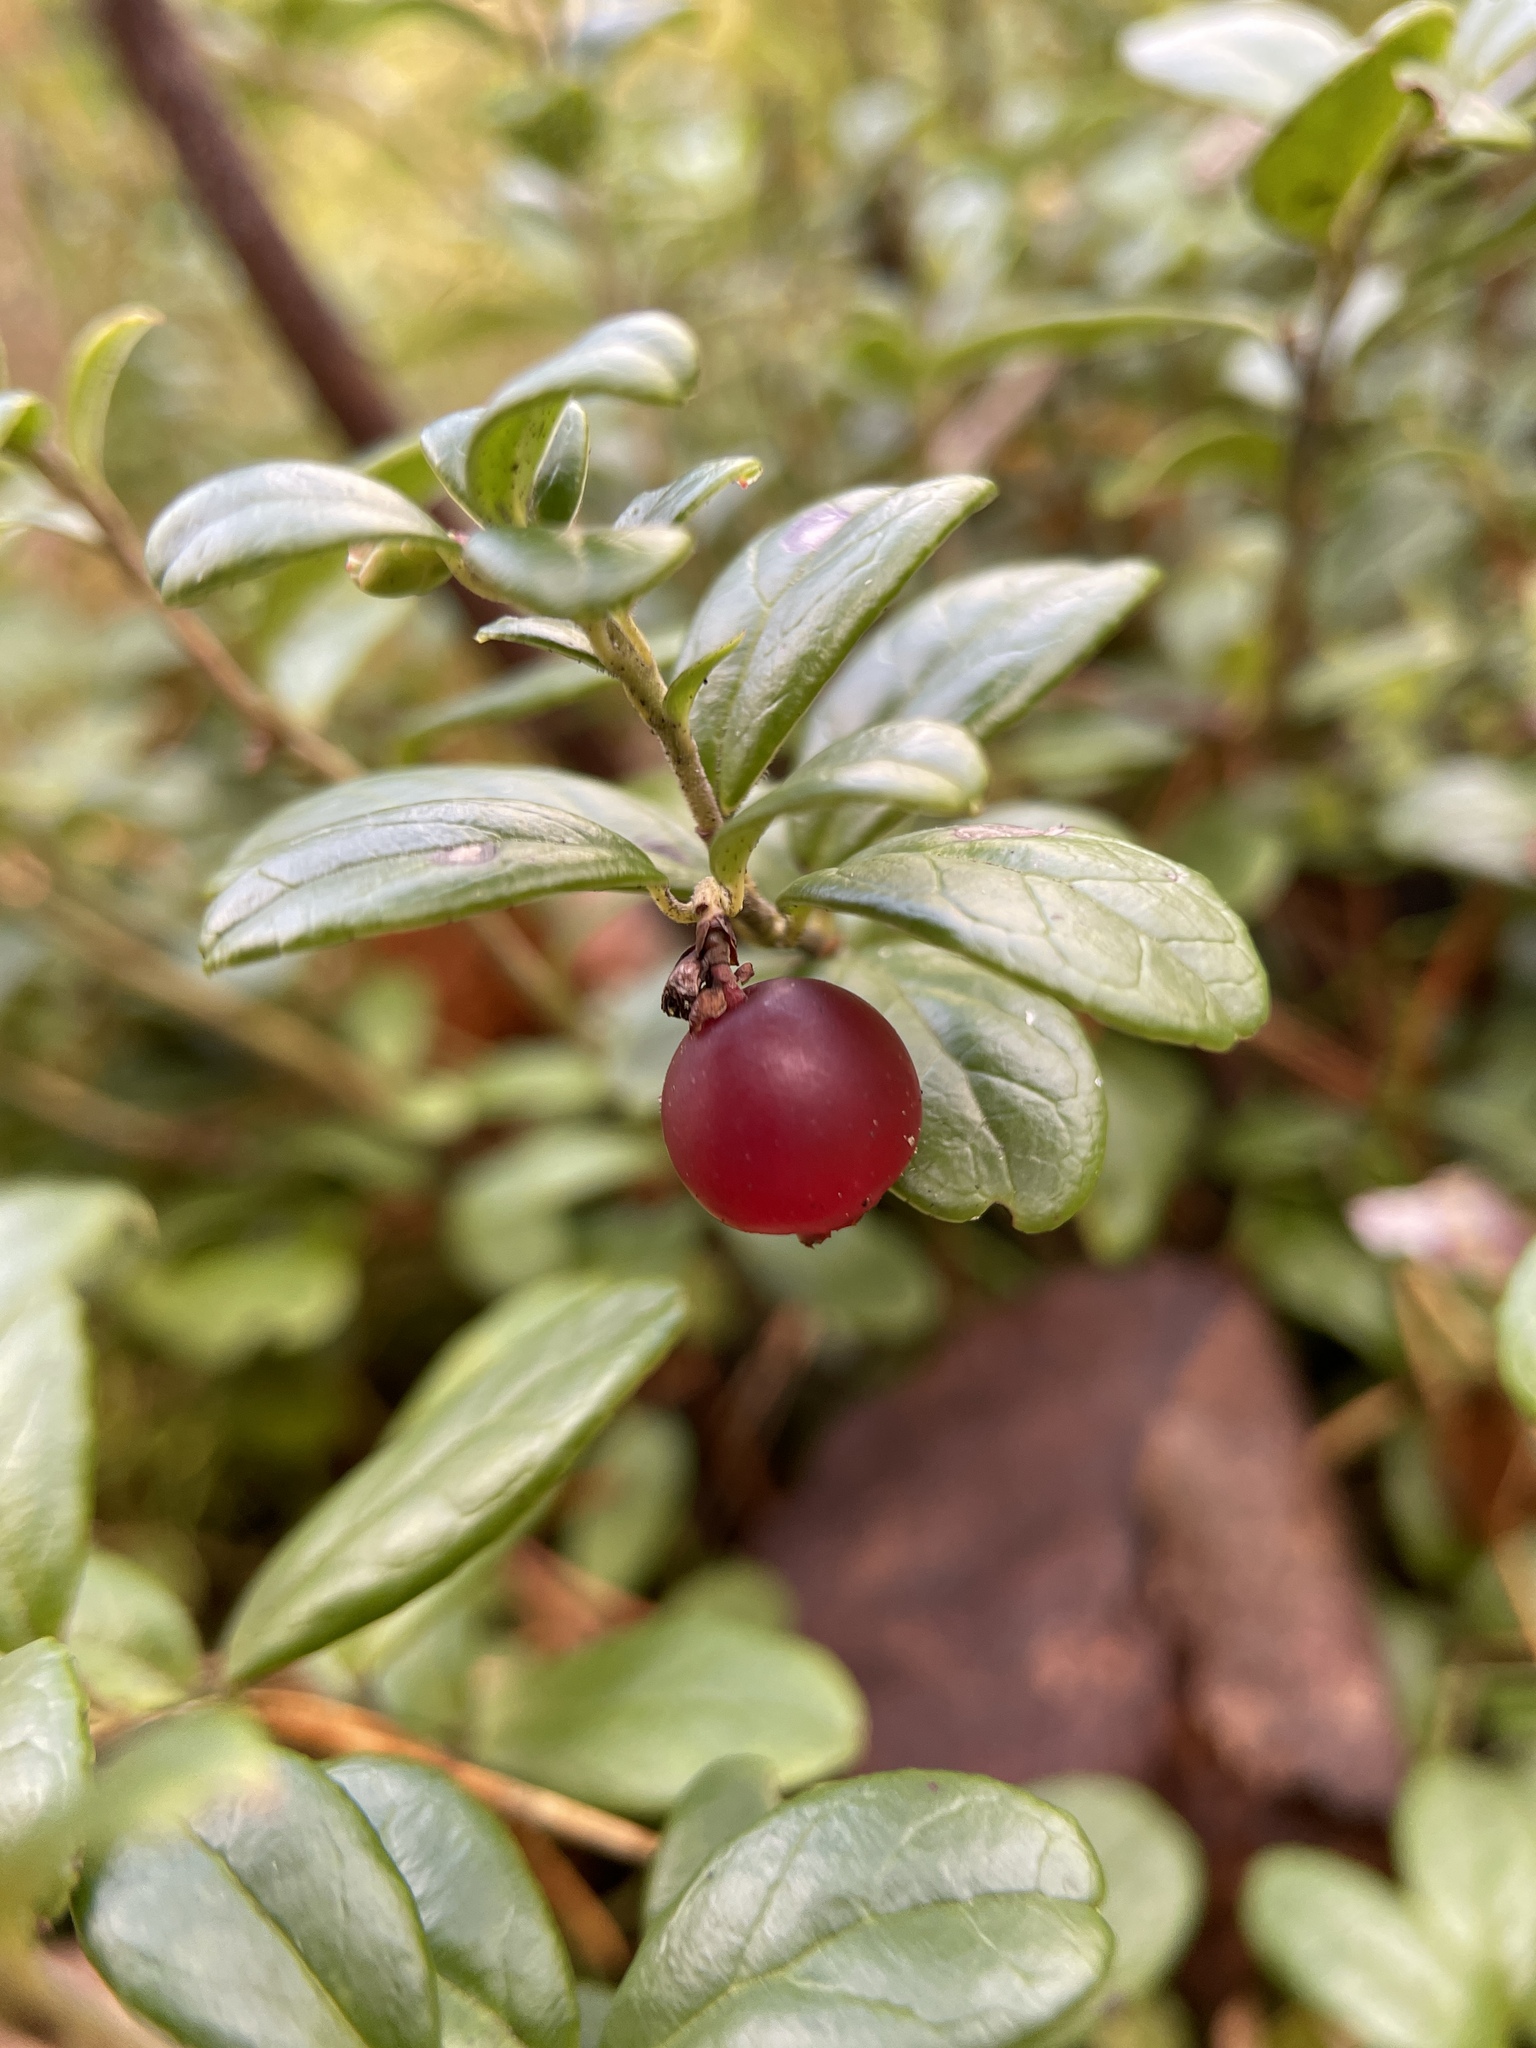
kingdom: Plantae
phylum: Tracheophyta
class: Magnoliopsida
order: Ericales
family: Ericaceae
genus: Vaccinium
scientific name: Vaccinium vitis-idaea
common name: Cowberry
